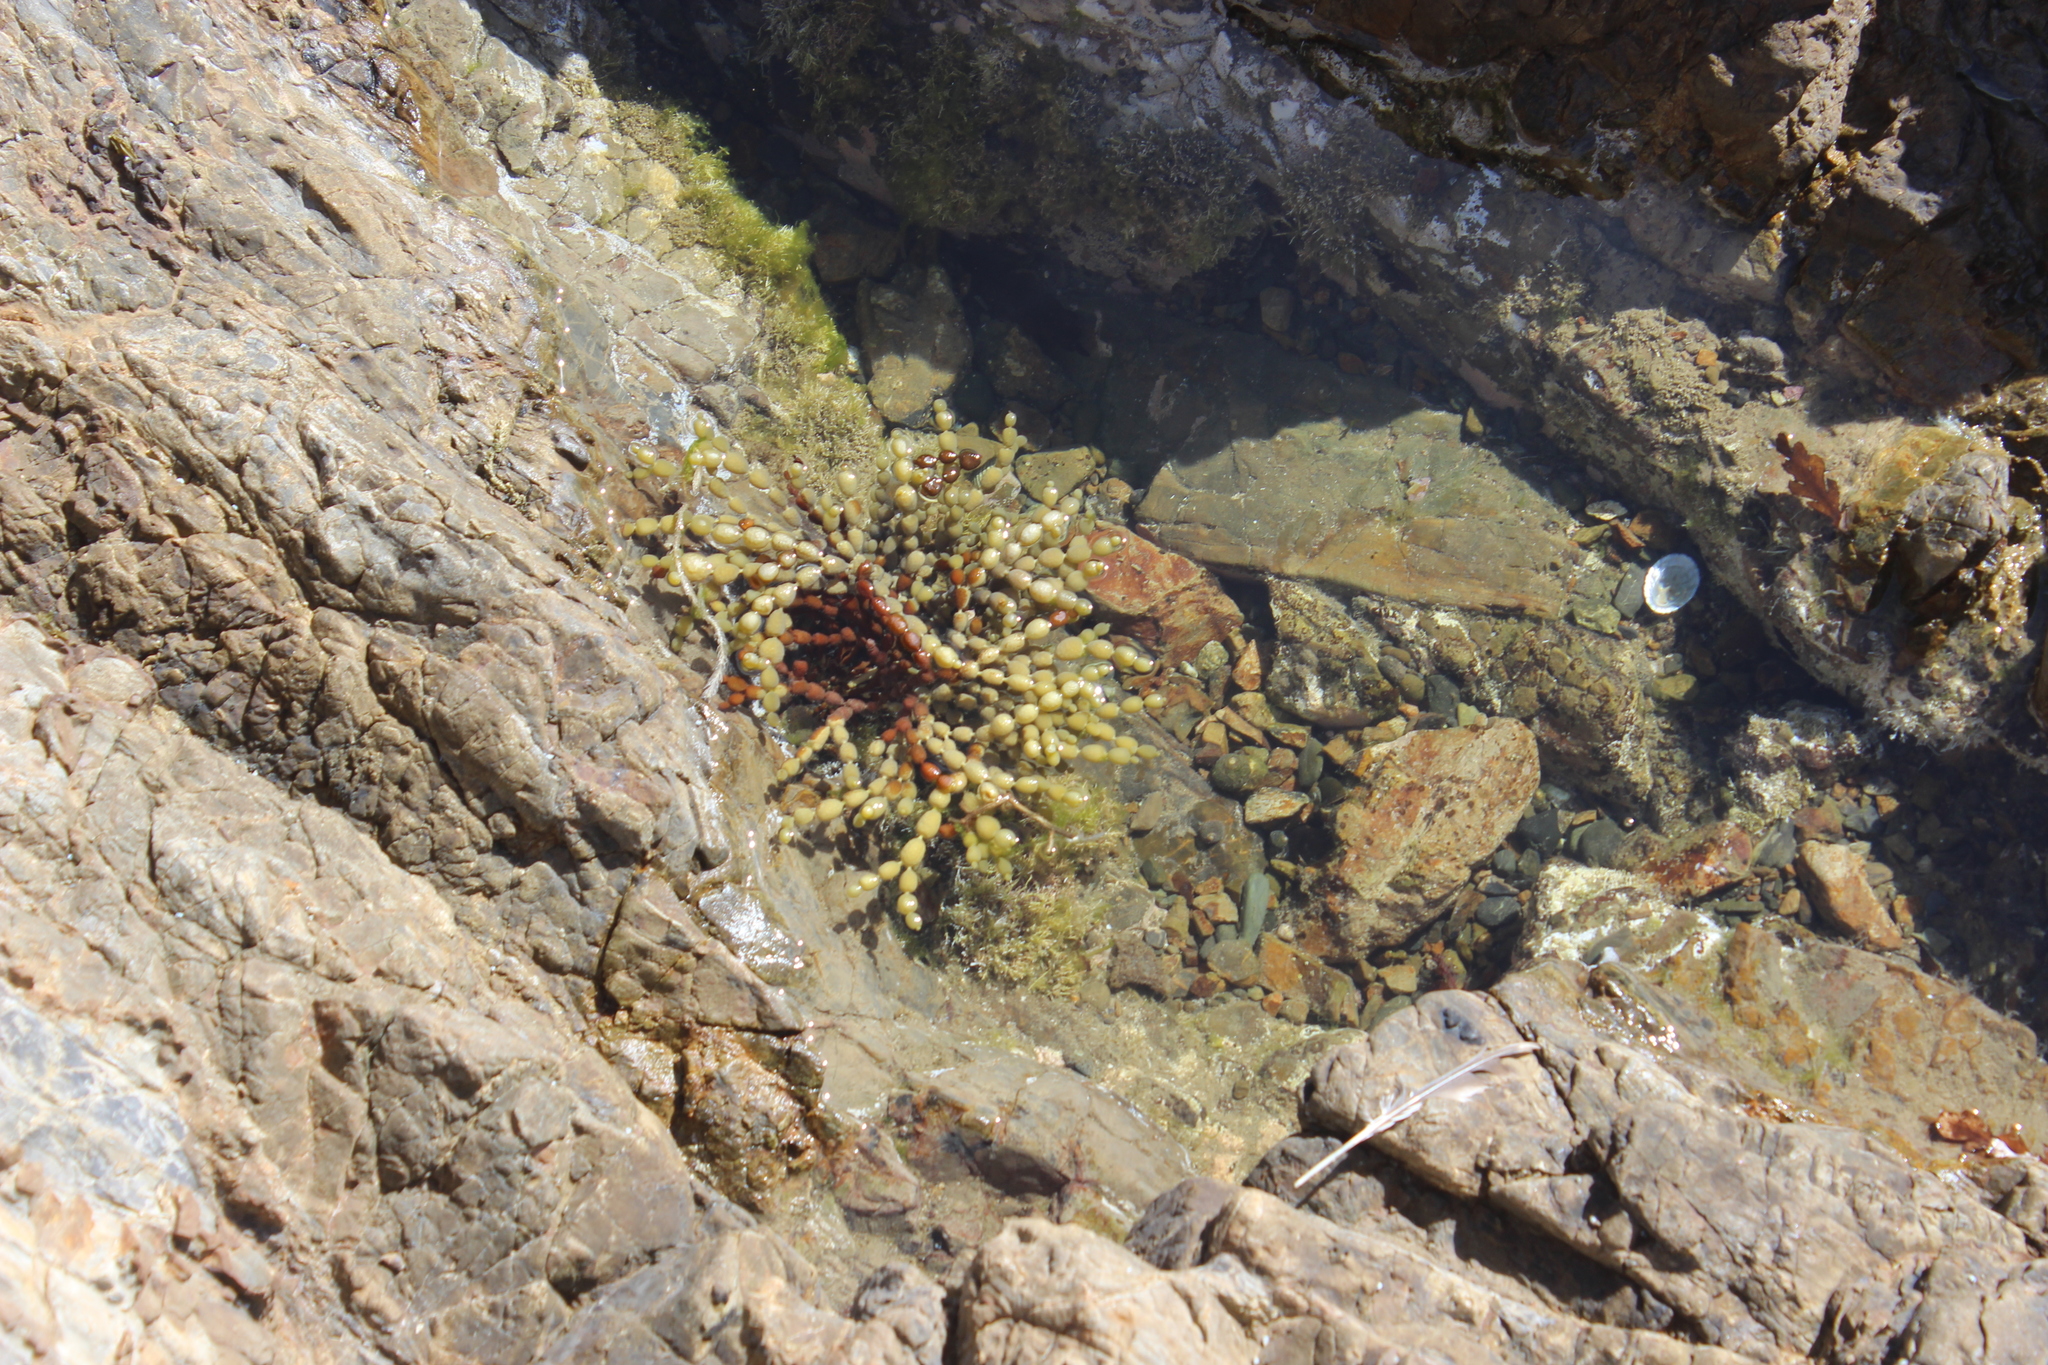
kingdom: Chromista
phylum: Ochrophyta
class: Phaeophyceae
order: Fucales
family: Hormosiraceae
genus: Hormosira
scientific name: Hormosira banksii
